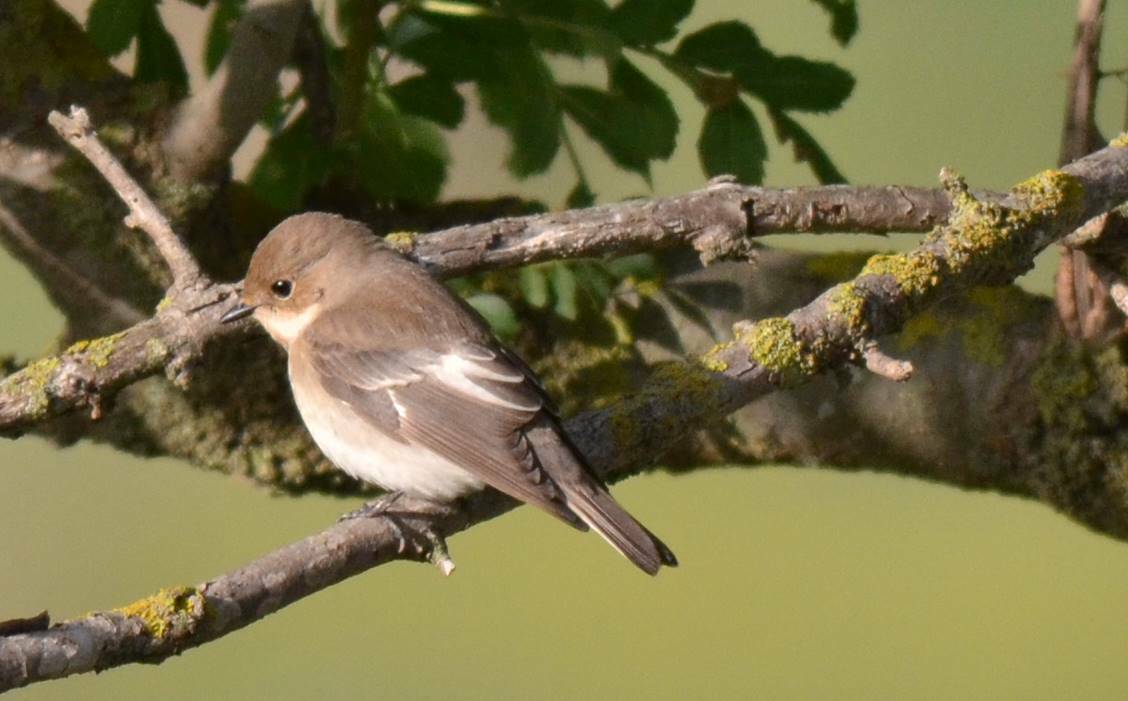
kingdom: Animalia
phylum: Chordata
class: Aves
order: Passeriformes
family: Muscicapidae
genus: Ficedula
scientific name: Ficedula hypoleuca
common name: European pied flycatcher
